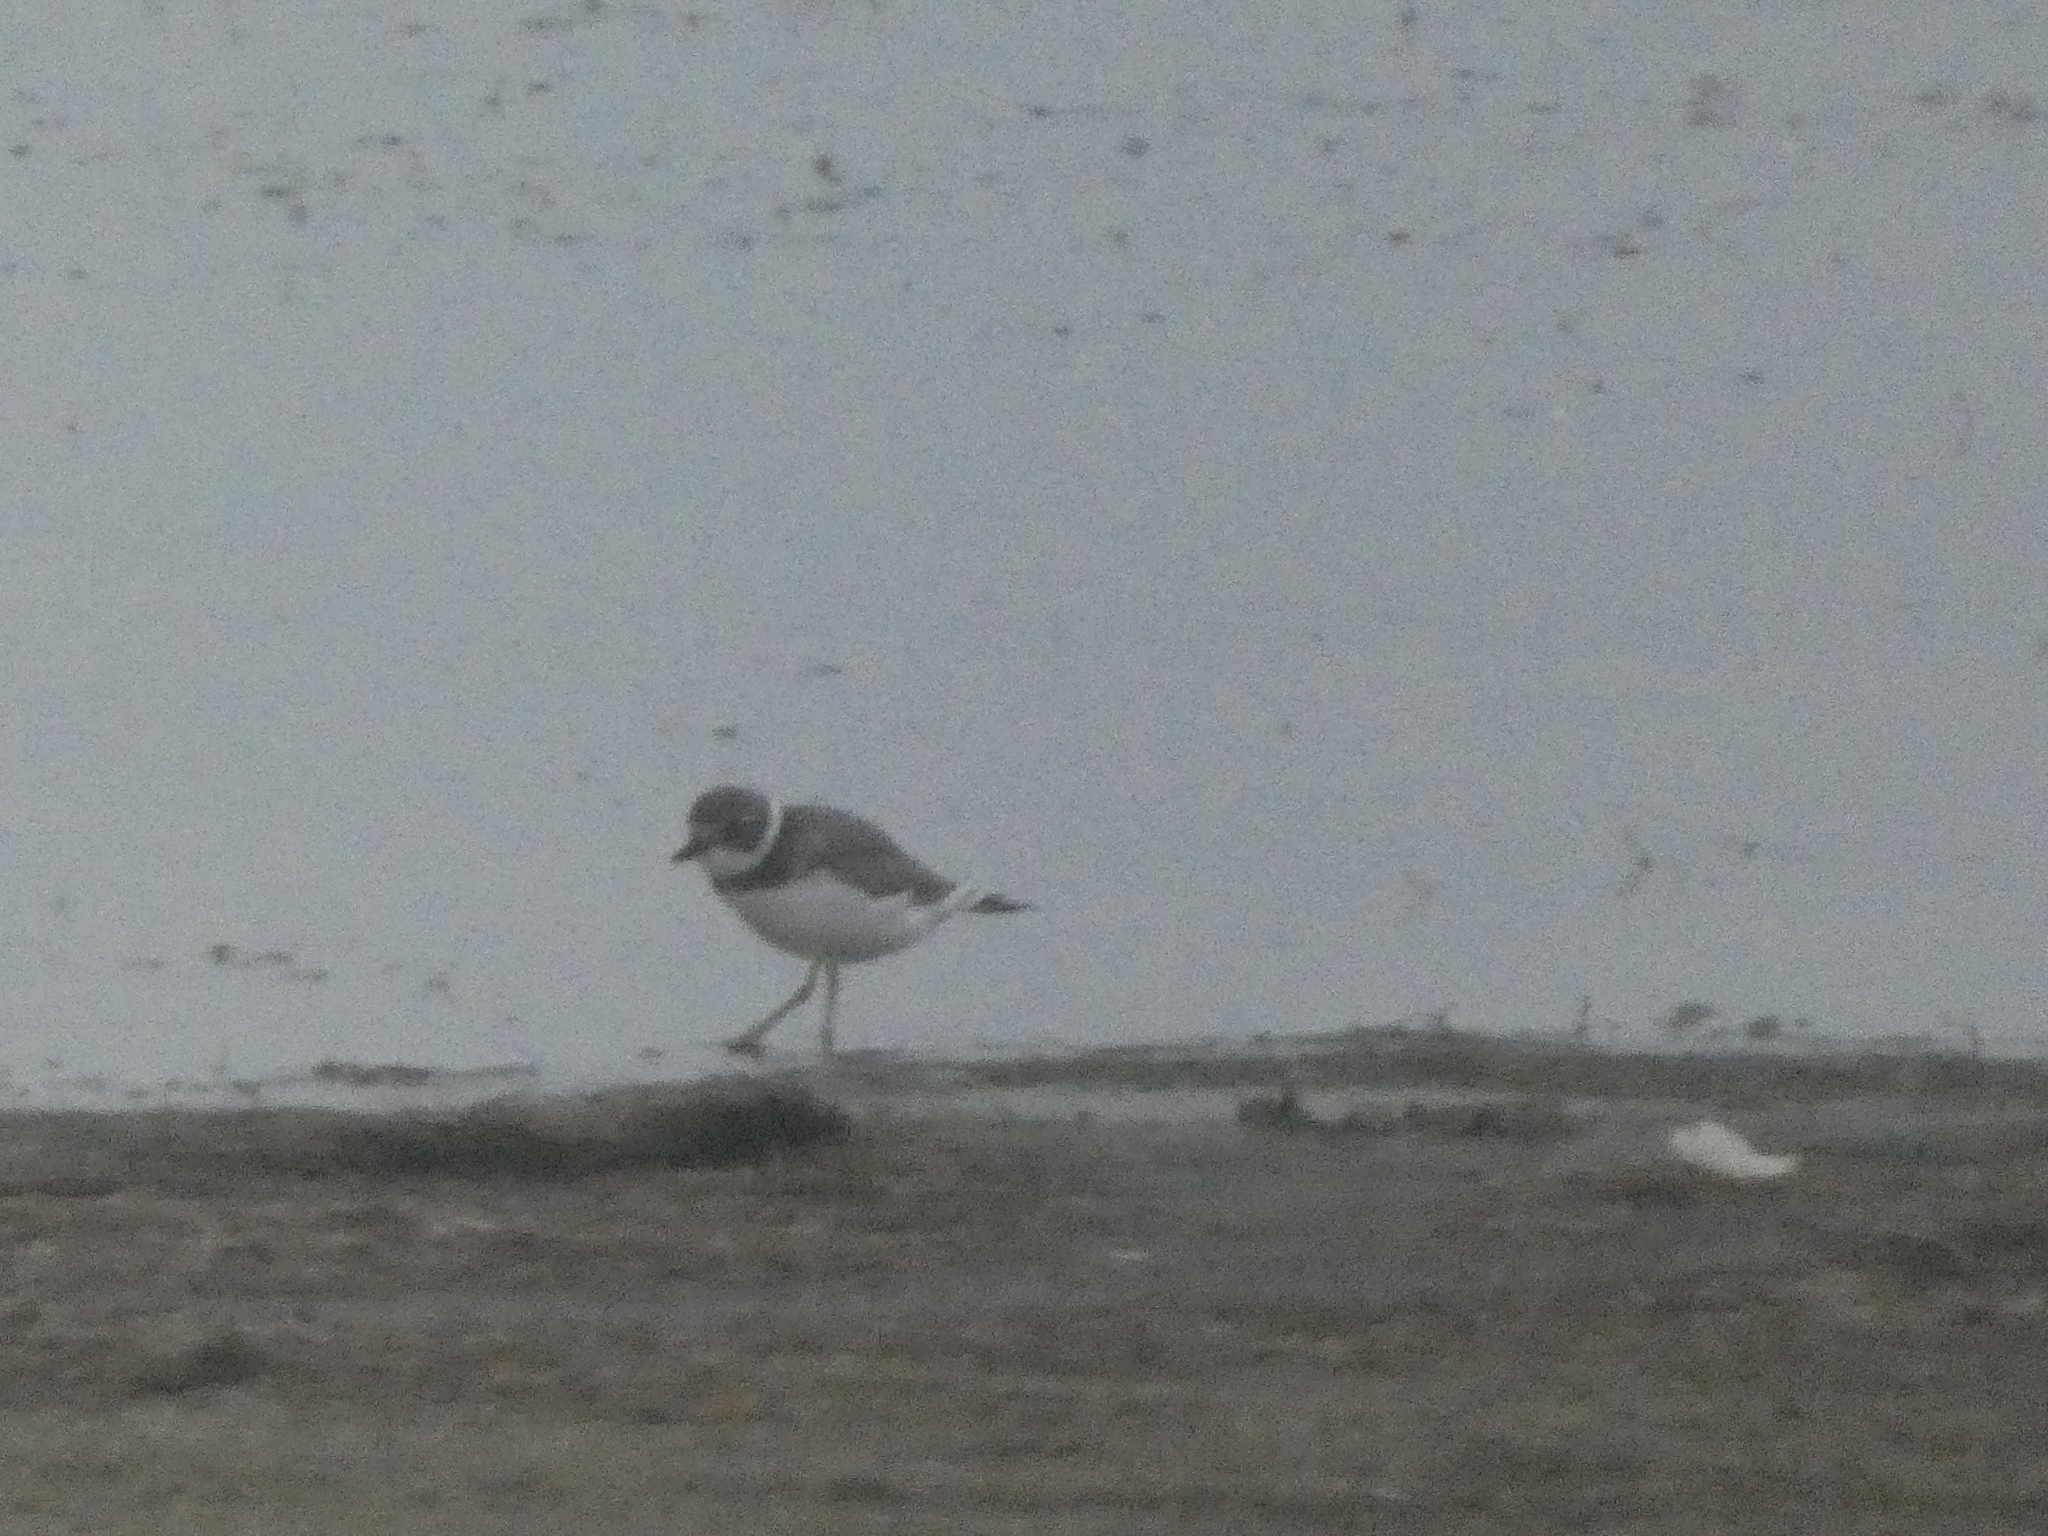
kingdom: Animalia
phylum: Chordata
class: Aves
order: Charadriiformes
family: Charadriidae
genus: Charadrius
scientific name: Charadrius semipalmatus
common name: Semipalmated plover
